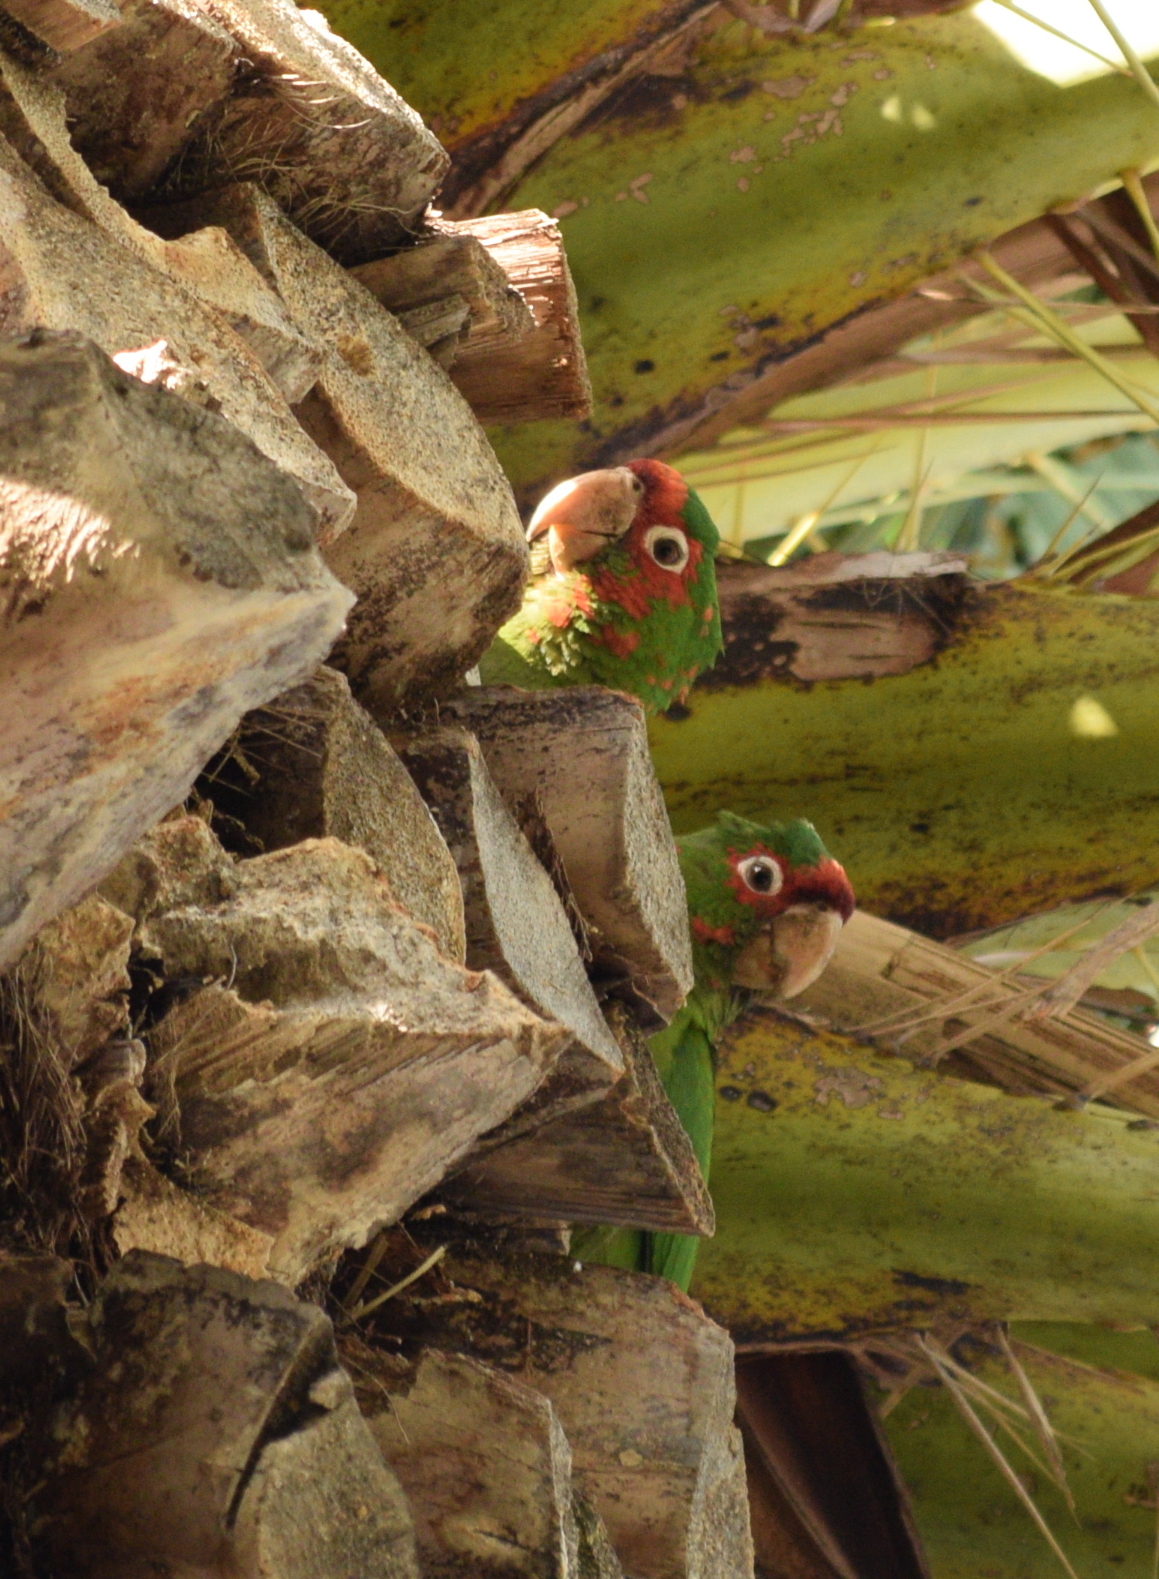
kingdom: Animalia
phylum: Chordata
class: Aves
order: Psittaciformes
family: Psittacidae
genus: Aratinga
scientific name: Aratinga mitrata
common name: Mitred parakeet
